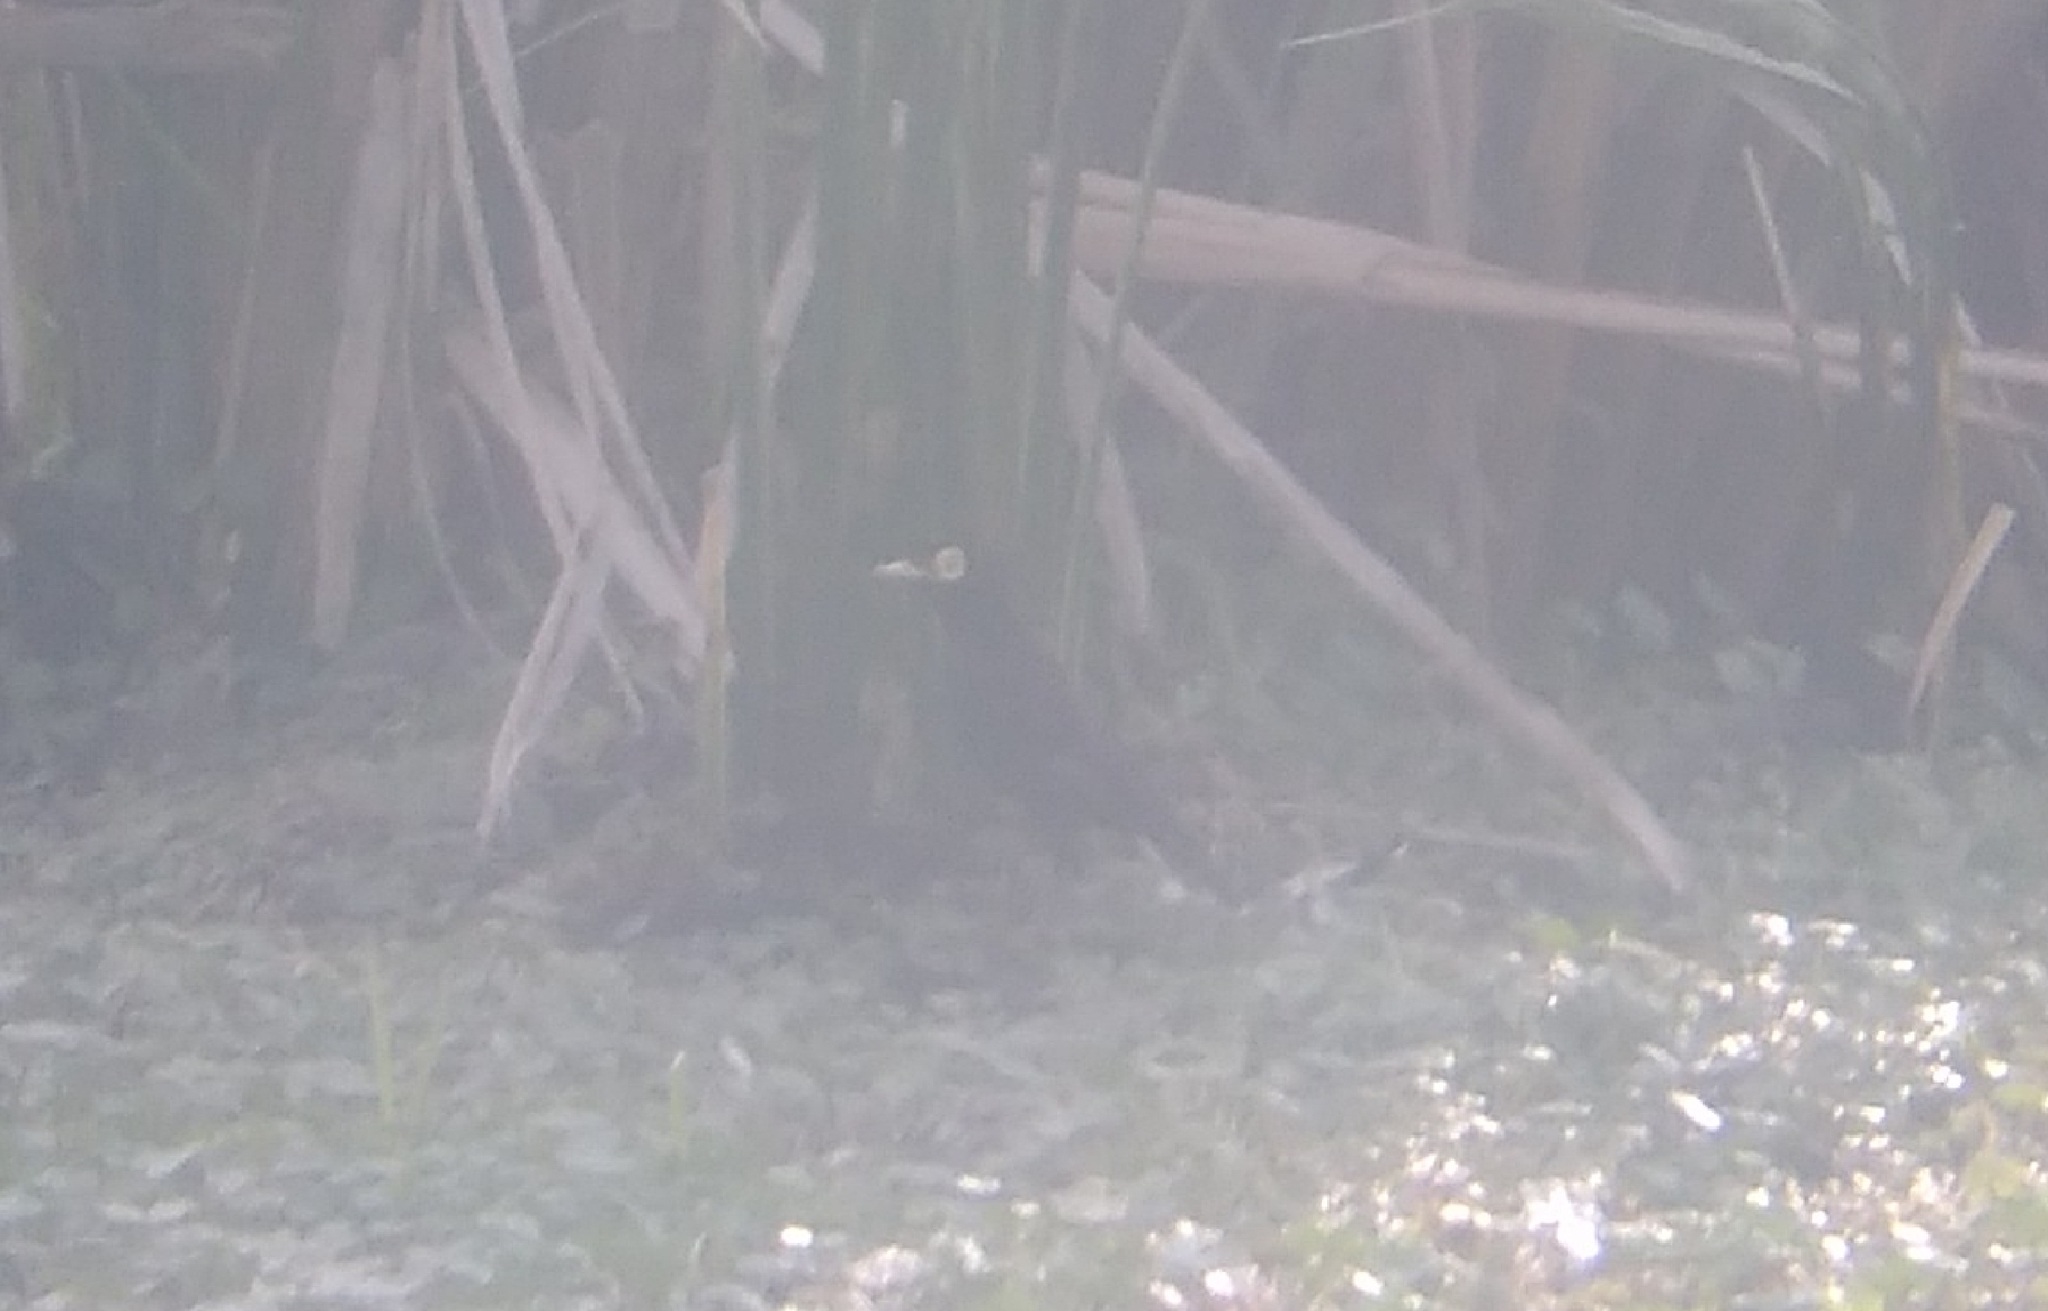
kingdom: Animalia
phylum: Chordata
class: Aves
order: Passeriformes
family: Tyrannidae
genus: Hymenops
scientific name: Hymenops perspicillatus
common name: Spectacled tyrant
